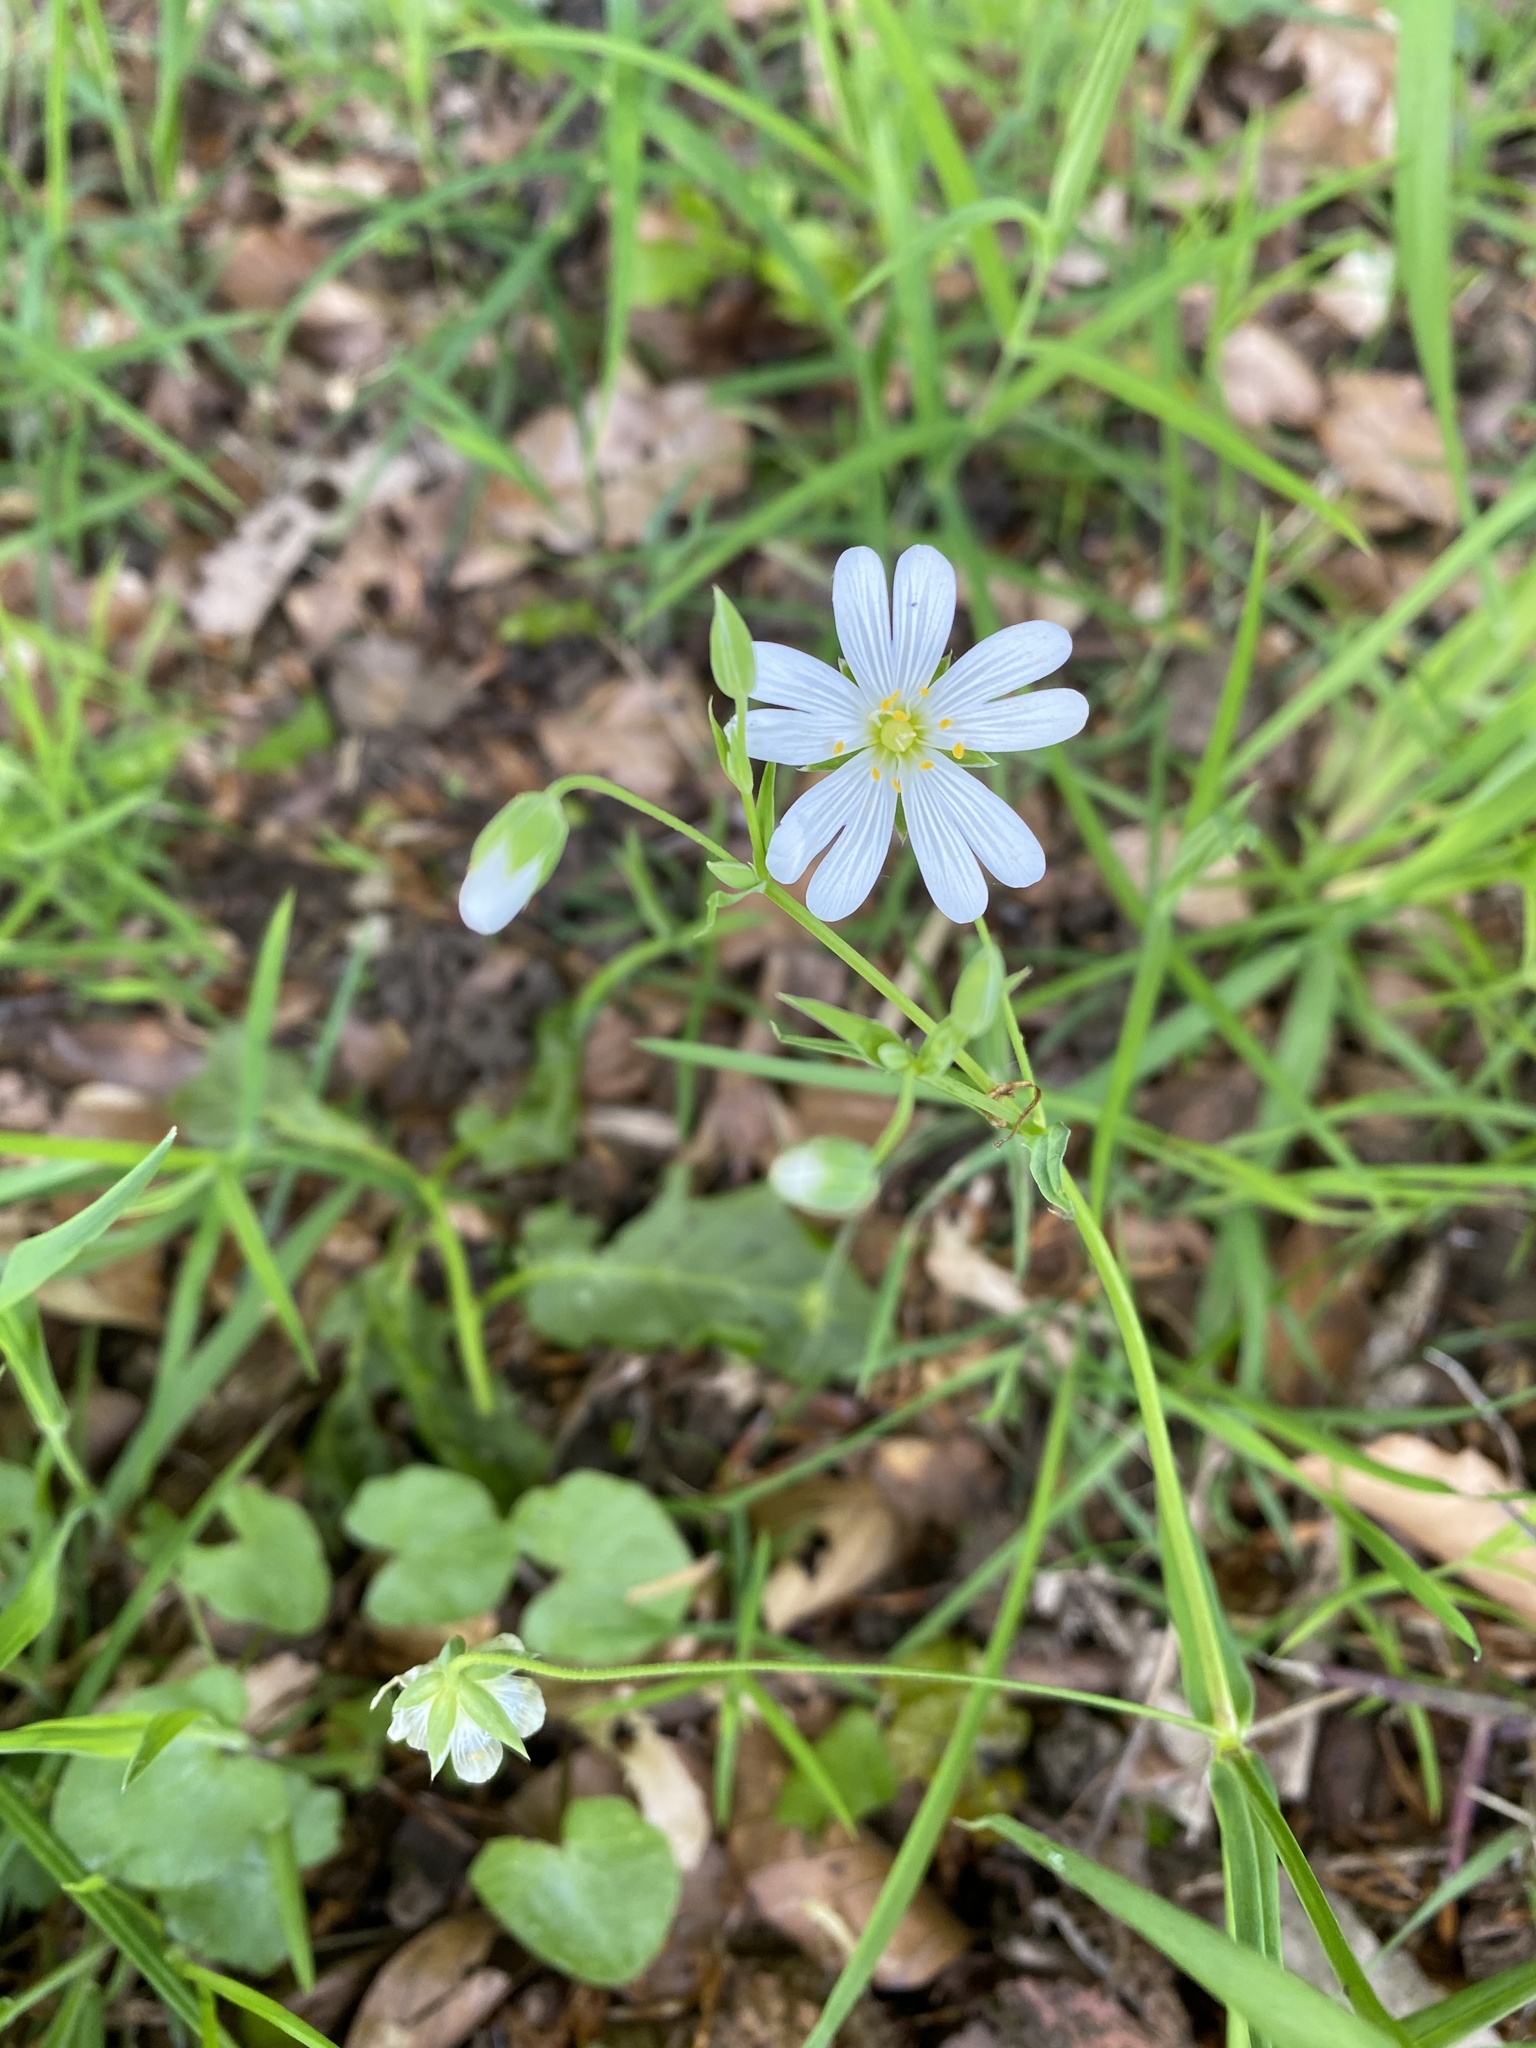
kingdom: Plantae
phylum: Tracheophyta
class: Magnoliopsida
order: Caryophyllales
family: Caryophyllaceae
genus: Rabelera
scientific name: Rabelera holostea
